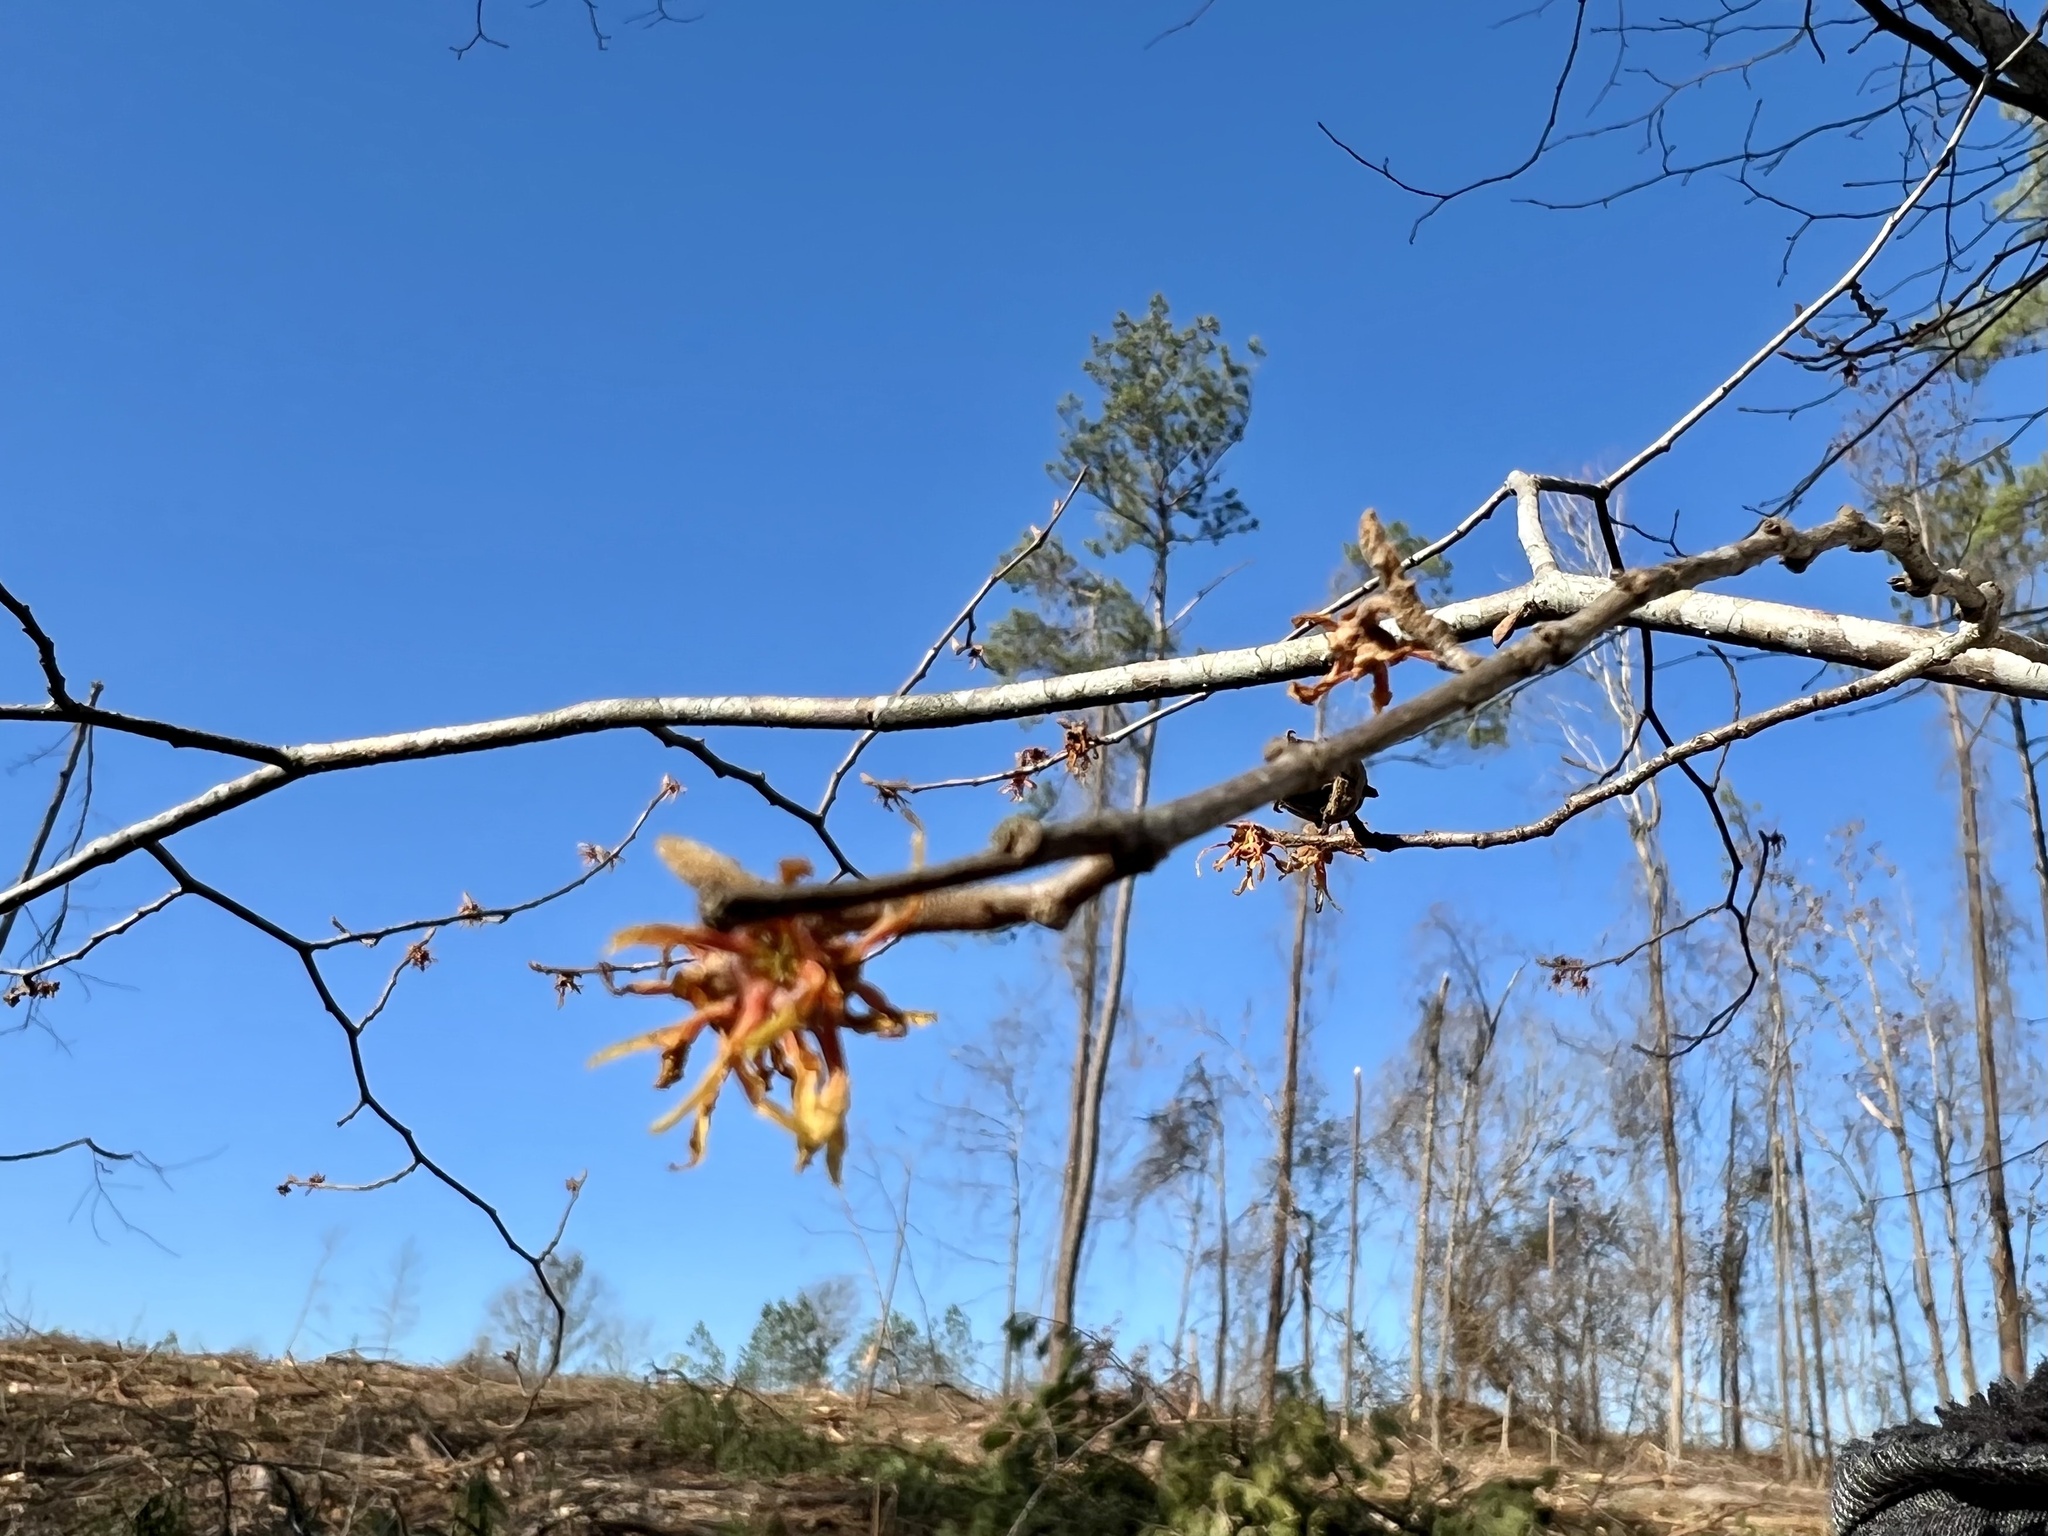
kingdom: Plantae
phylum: Tracheophyta
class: Magnoliopsida
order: Saxifragales
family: Hamamelidaceae
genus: Hamamelis
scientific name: Hamamelis ovalis
